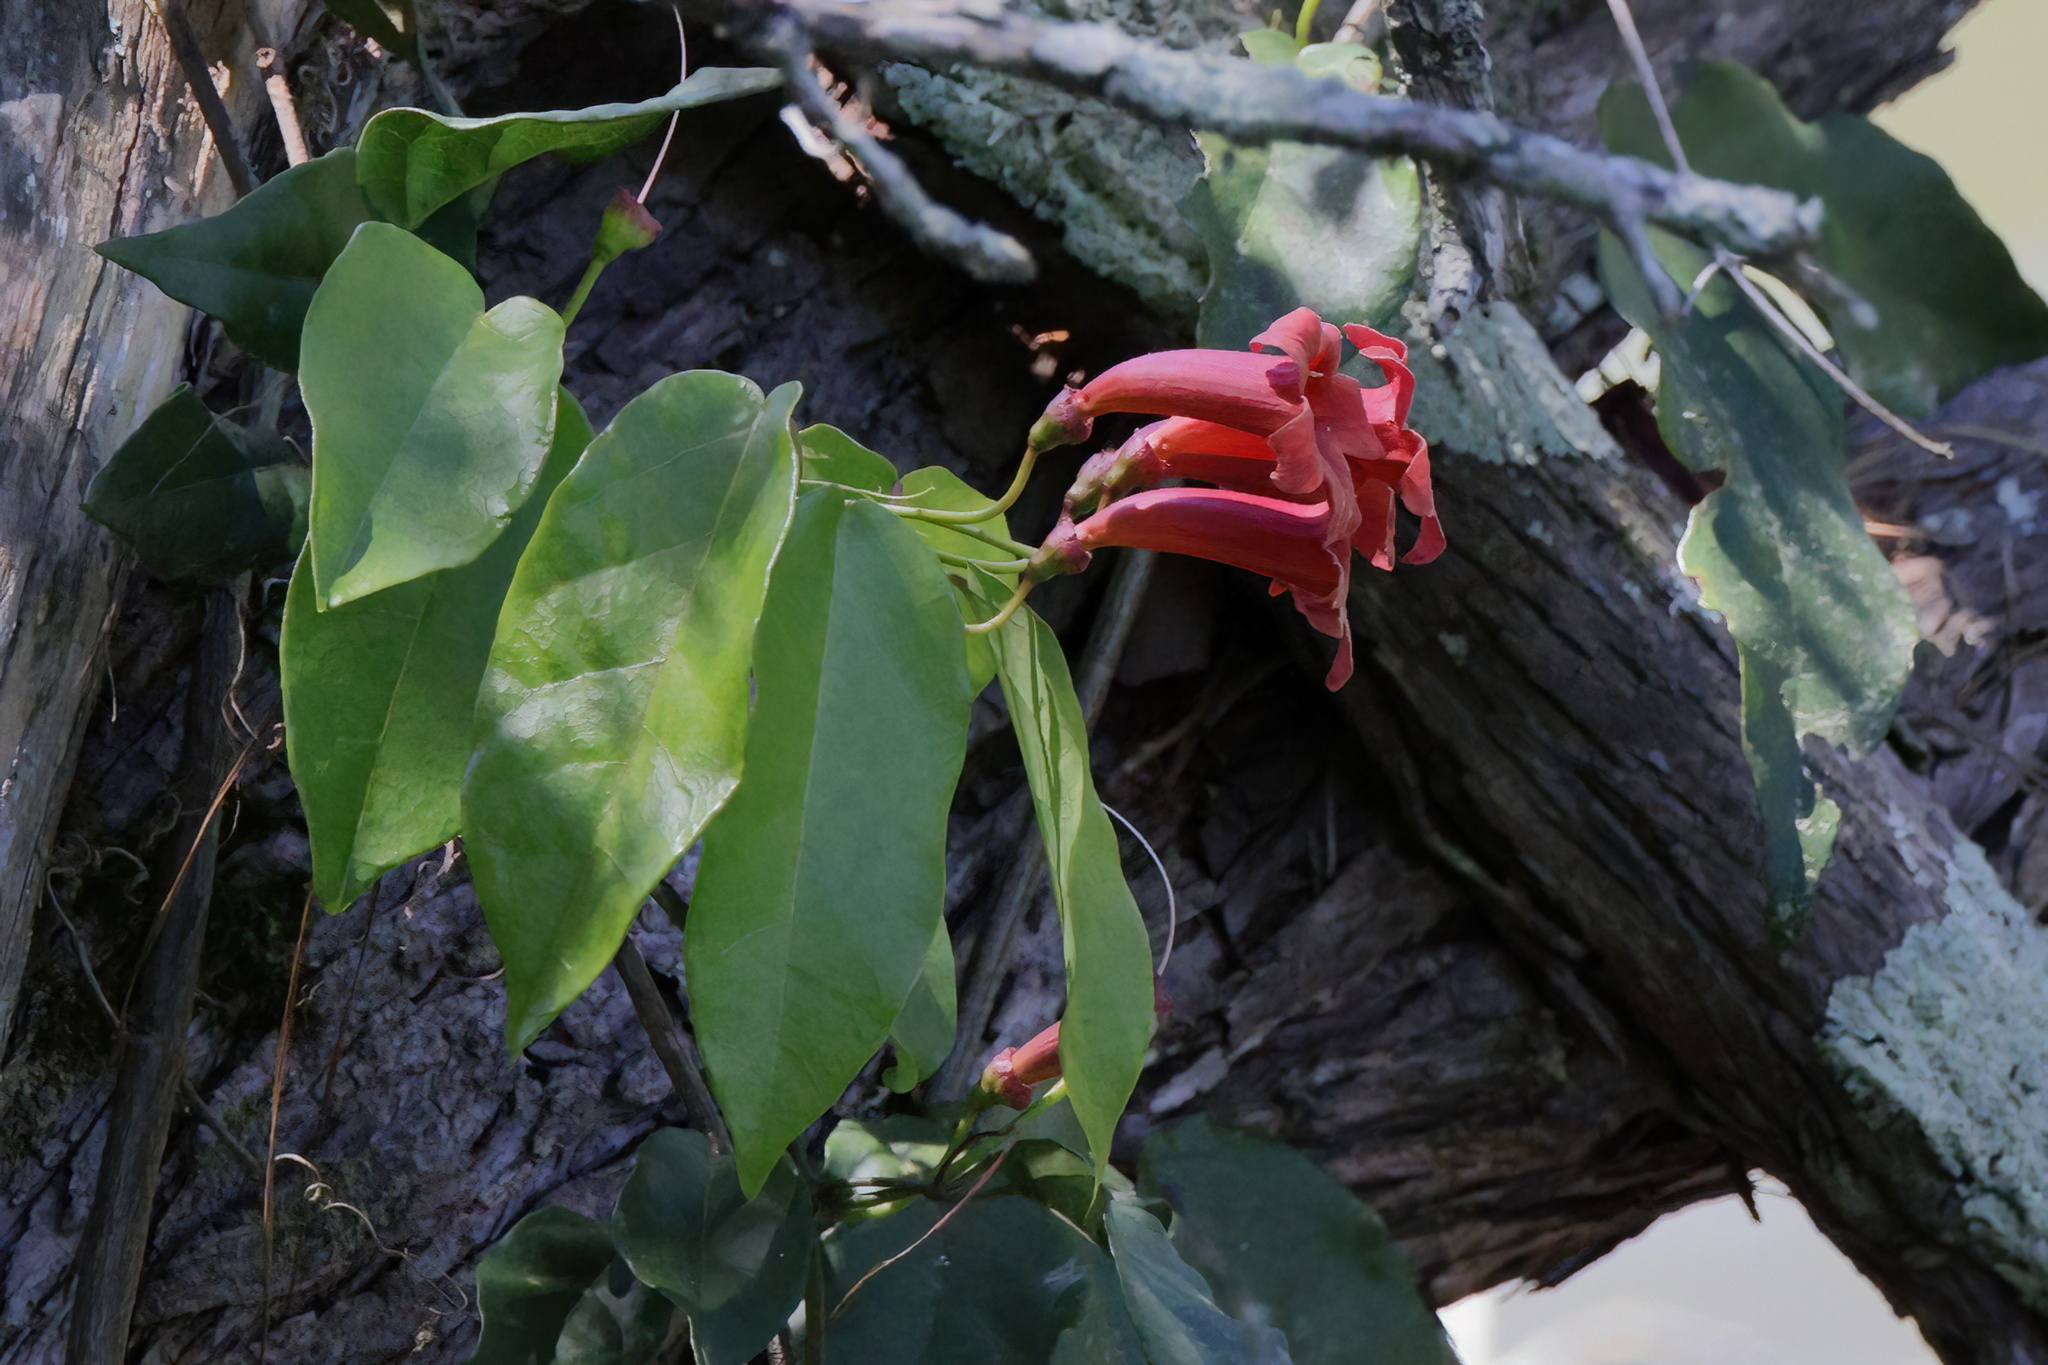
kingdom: Plantae
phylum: Tracheophyta
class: Magnoliopsida
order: Lamiales
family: Bignoniaceae
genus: Bignonia
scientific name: Bignonia capreolata
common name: Crossvine
